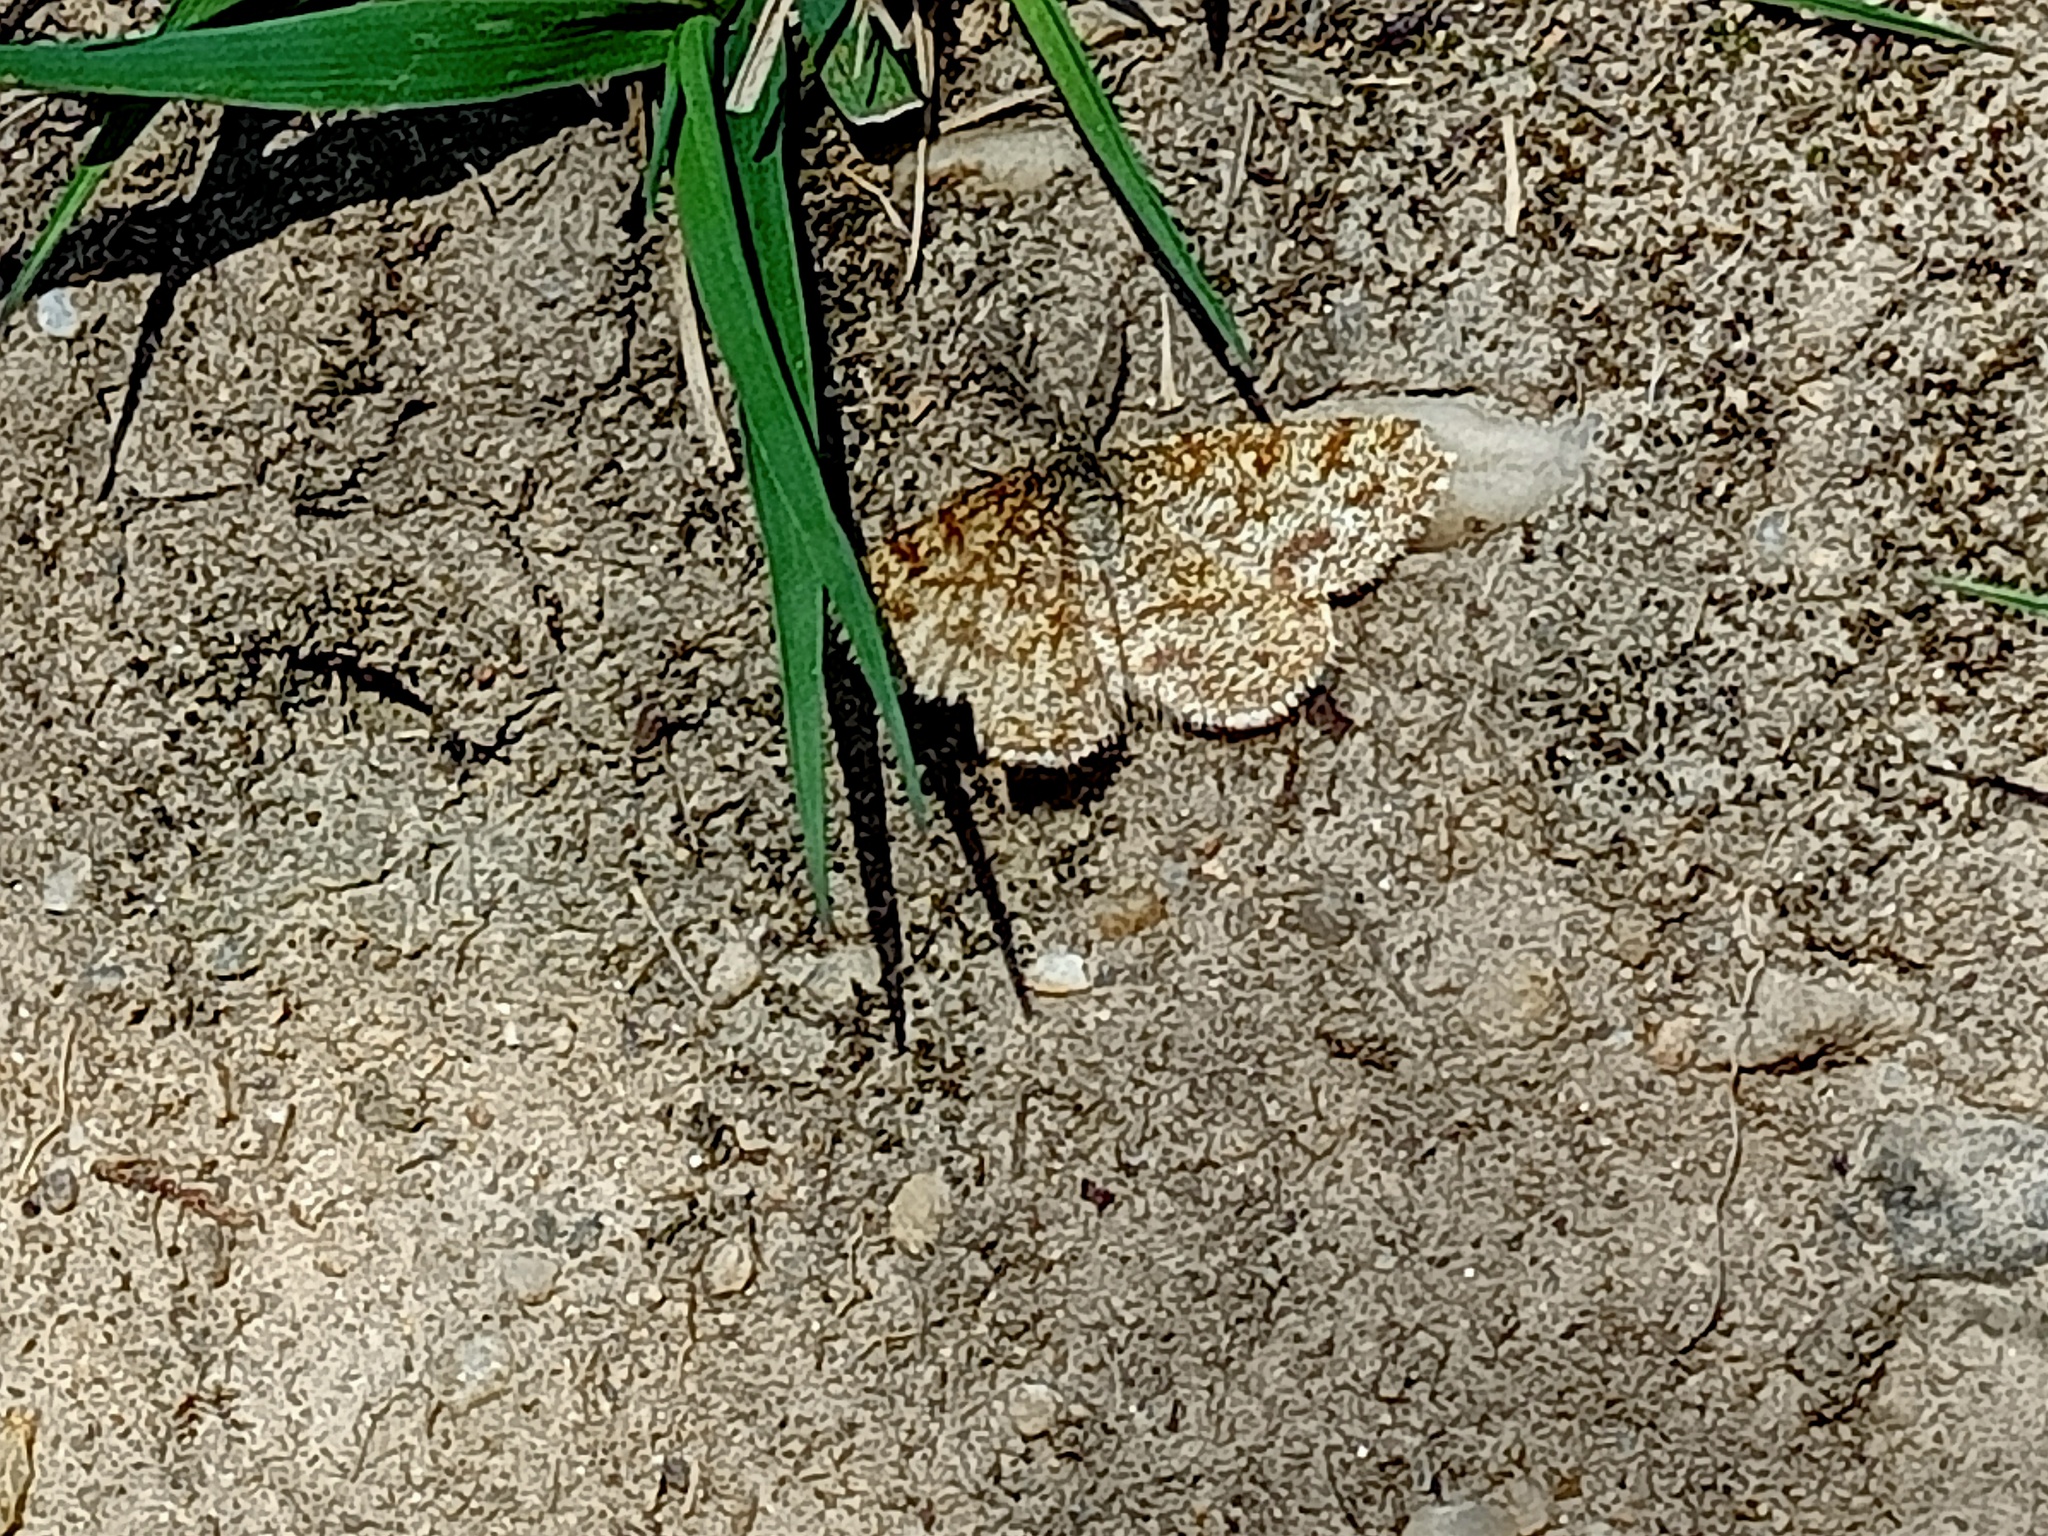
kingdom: Animalia
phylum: Arthropoda
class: Insecta
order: Lepidoptera
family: Geometridae
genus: Ematurga
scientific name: Ematurga atomaria
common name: Common heath
